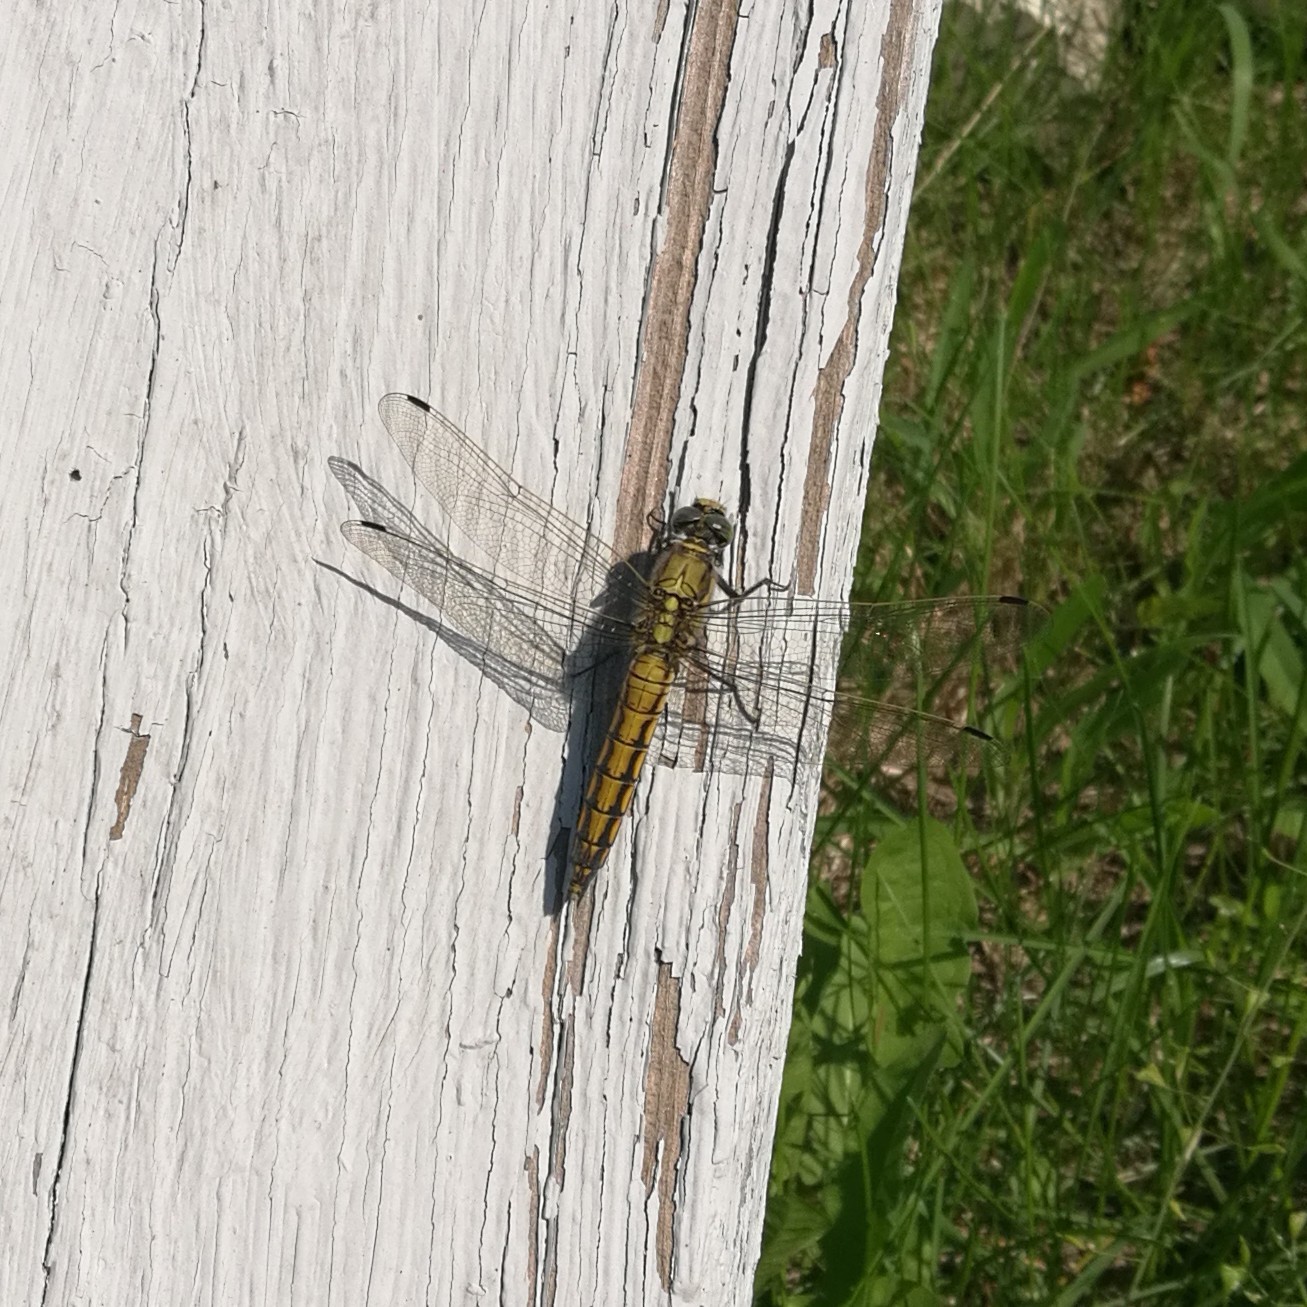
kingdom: Animalia
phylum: Arthropoda
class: Insecta
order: Odonata
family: Libellulidae
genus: Orthetrum
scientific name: Orthetrum cancellatum
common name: Black-tailed skimmer
